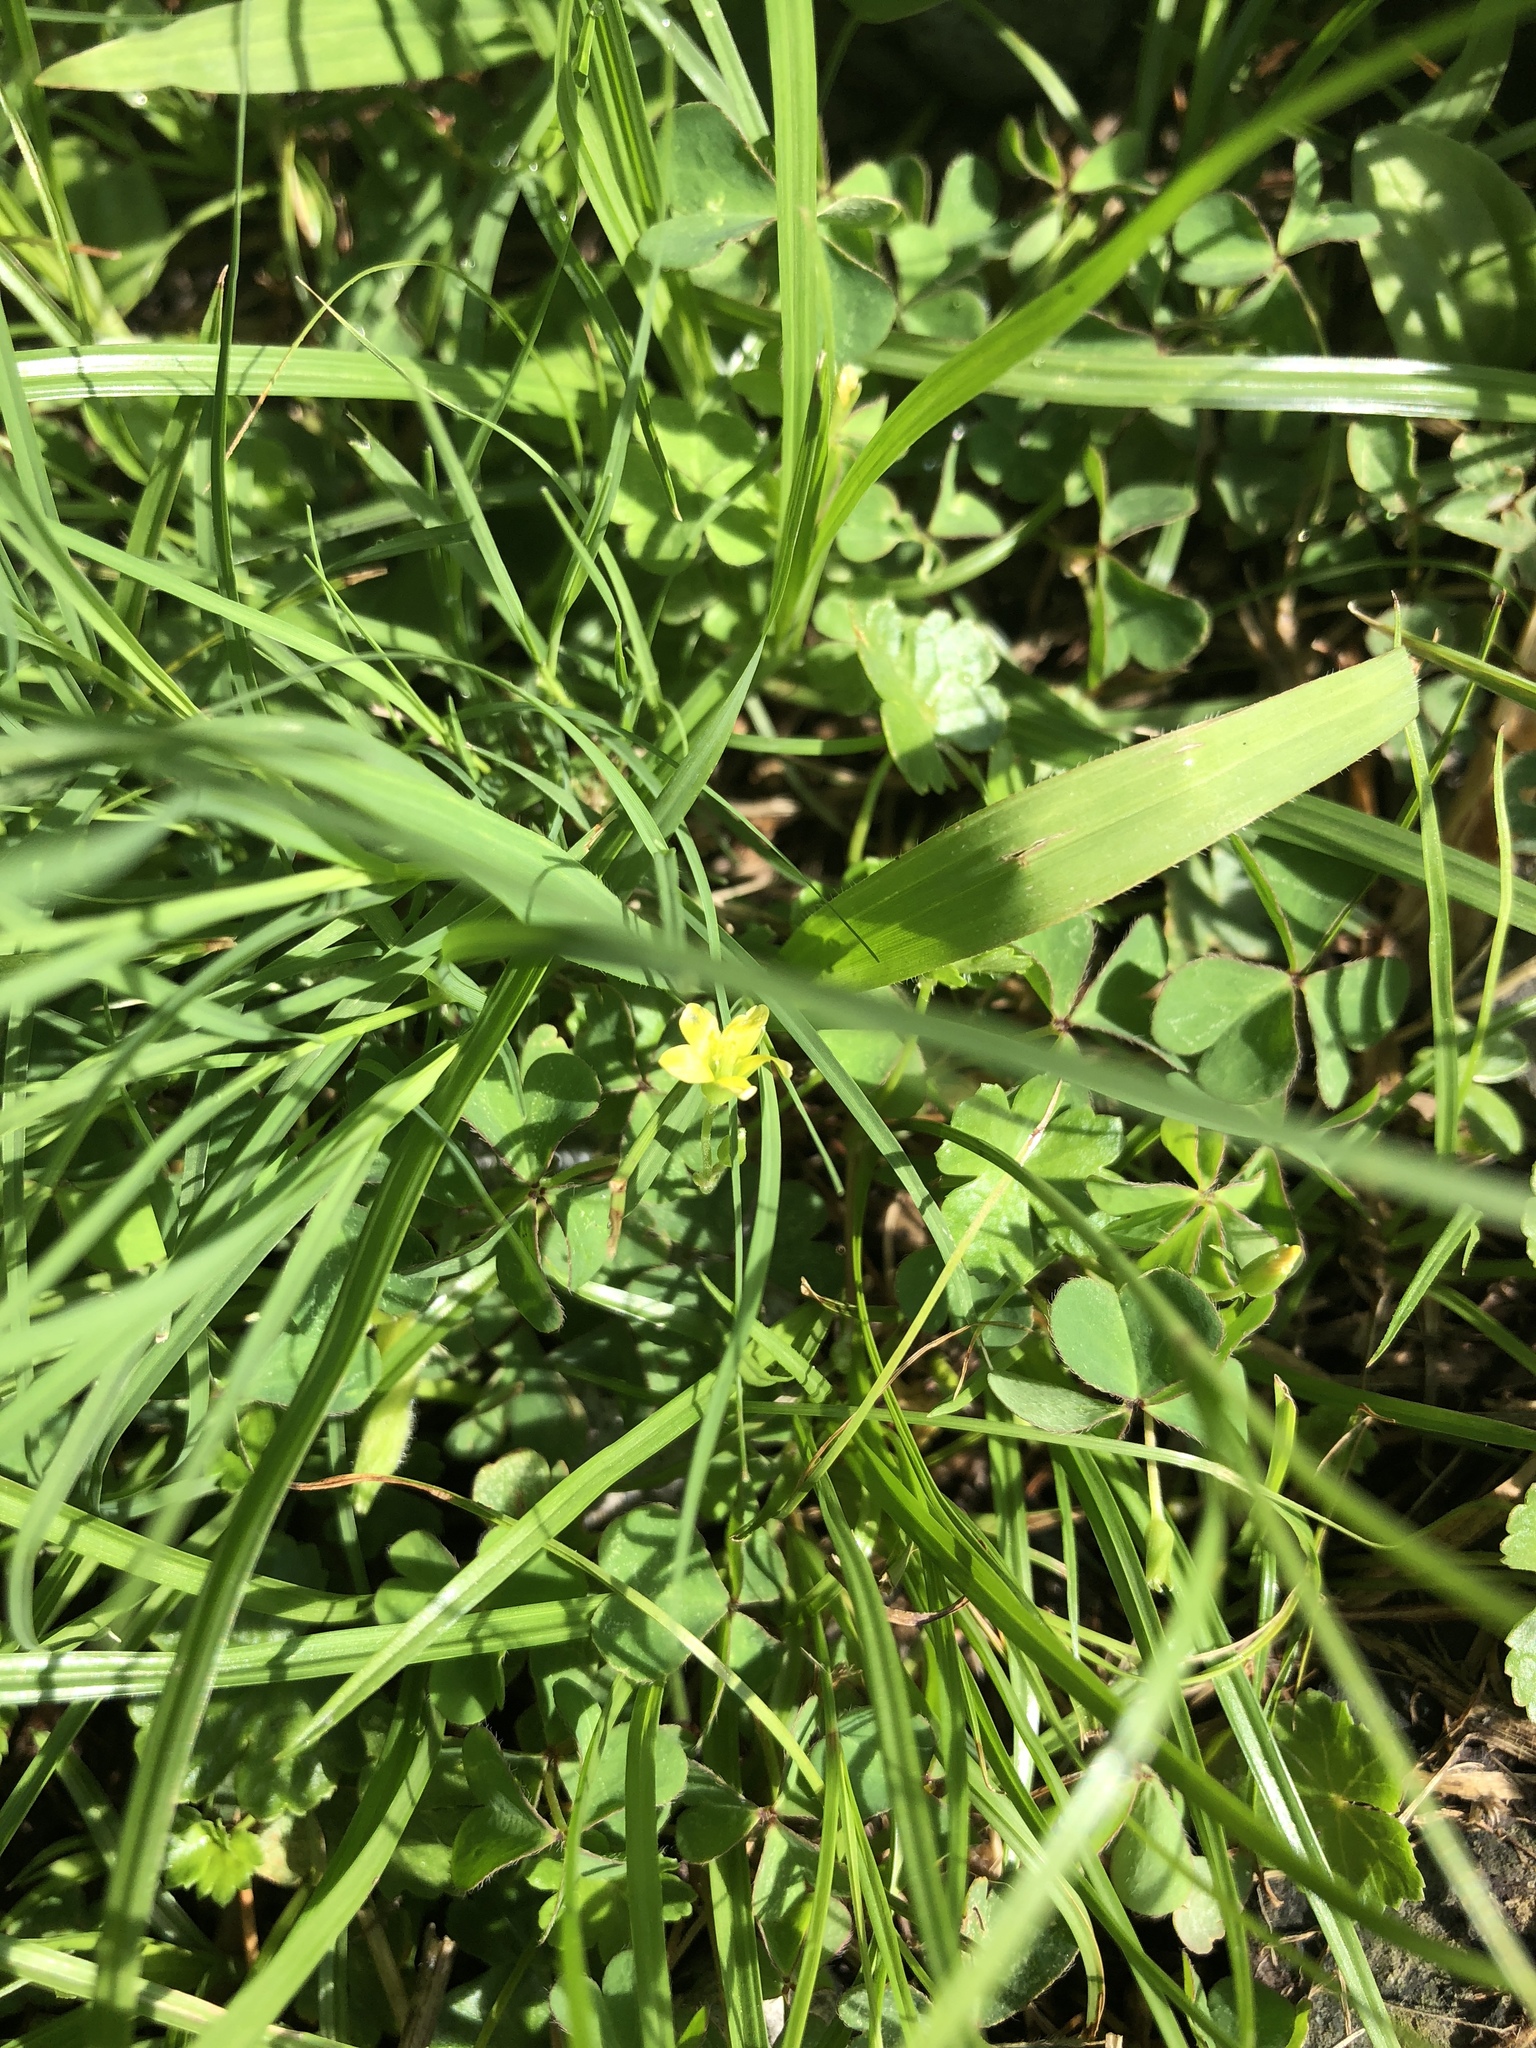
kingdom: Plantae
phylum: Tracheophyta
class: Magnoliopsida
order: Oxalidales
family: Oxalidaceae
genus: Oxalis
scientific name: Oxalis corniculata
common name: Procumbent yellow-sorrel
